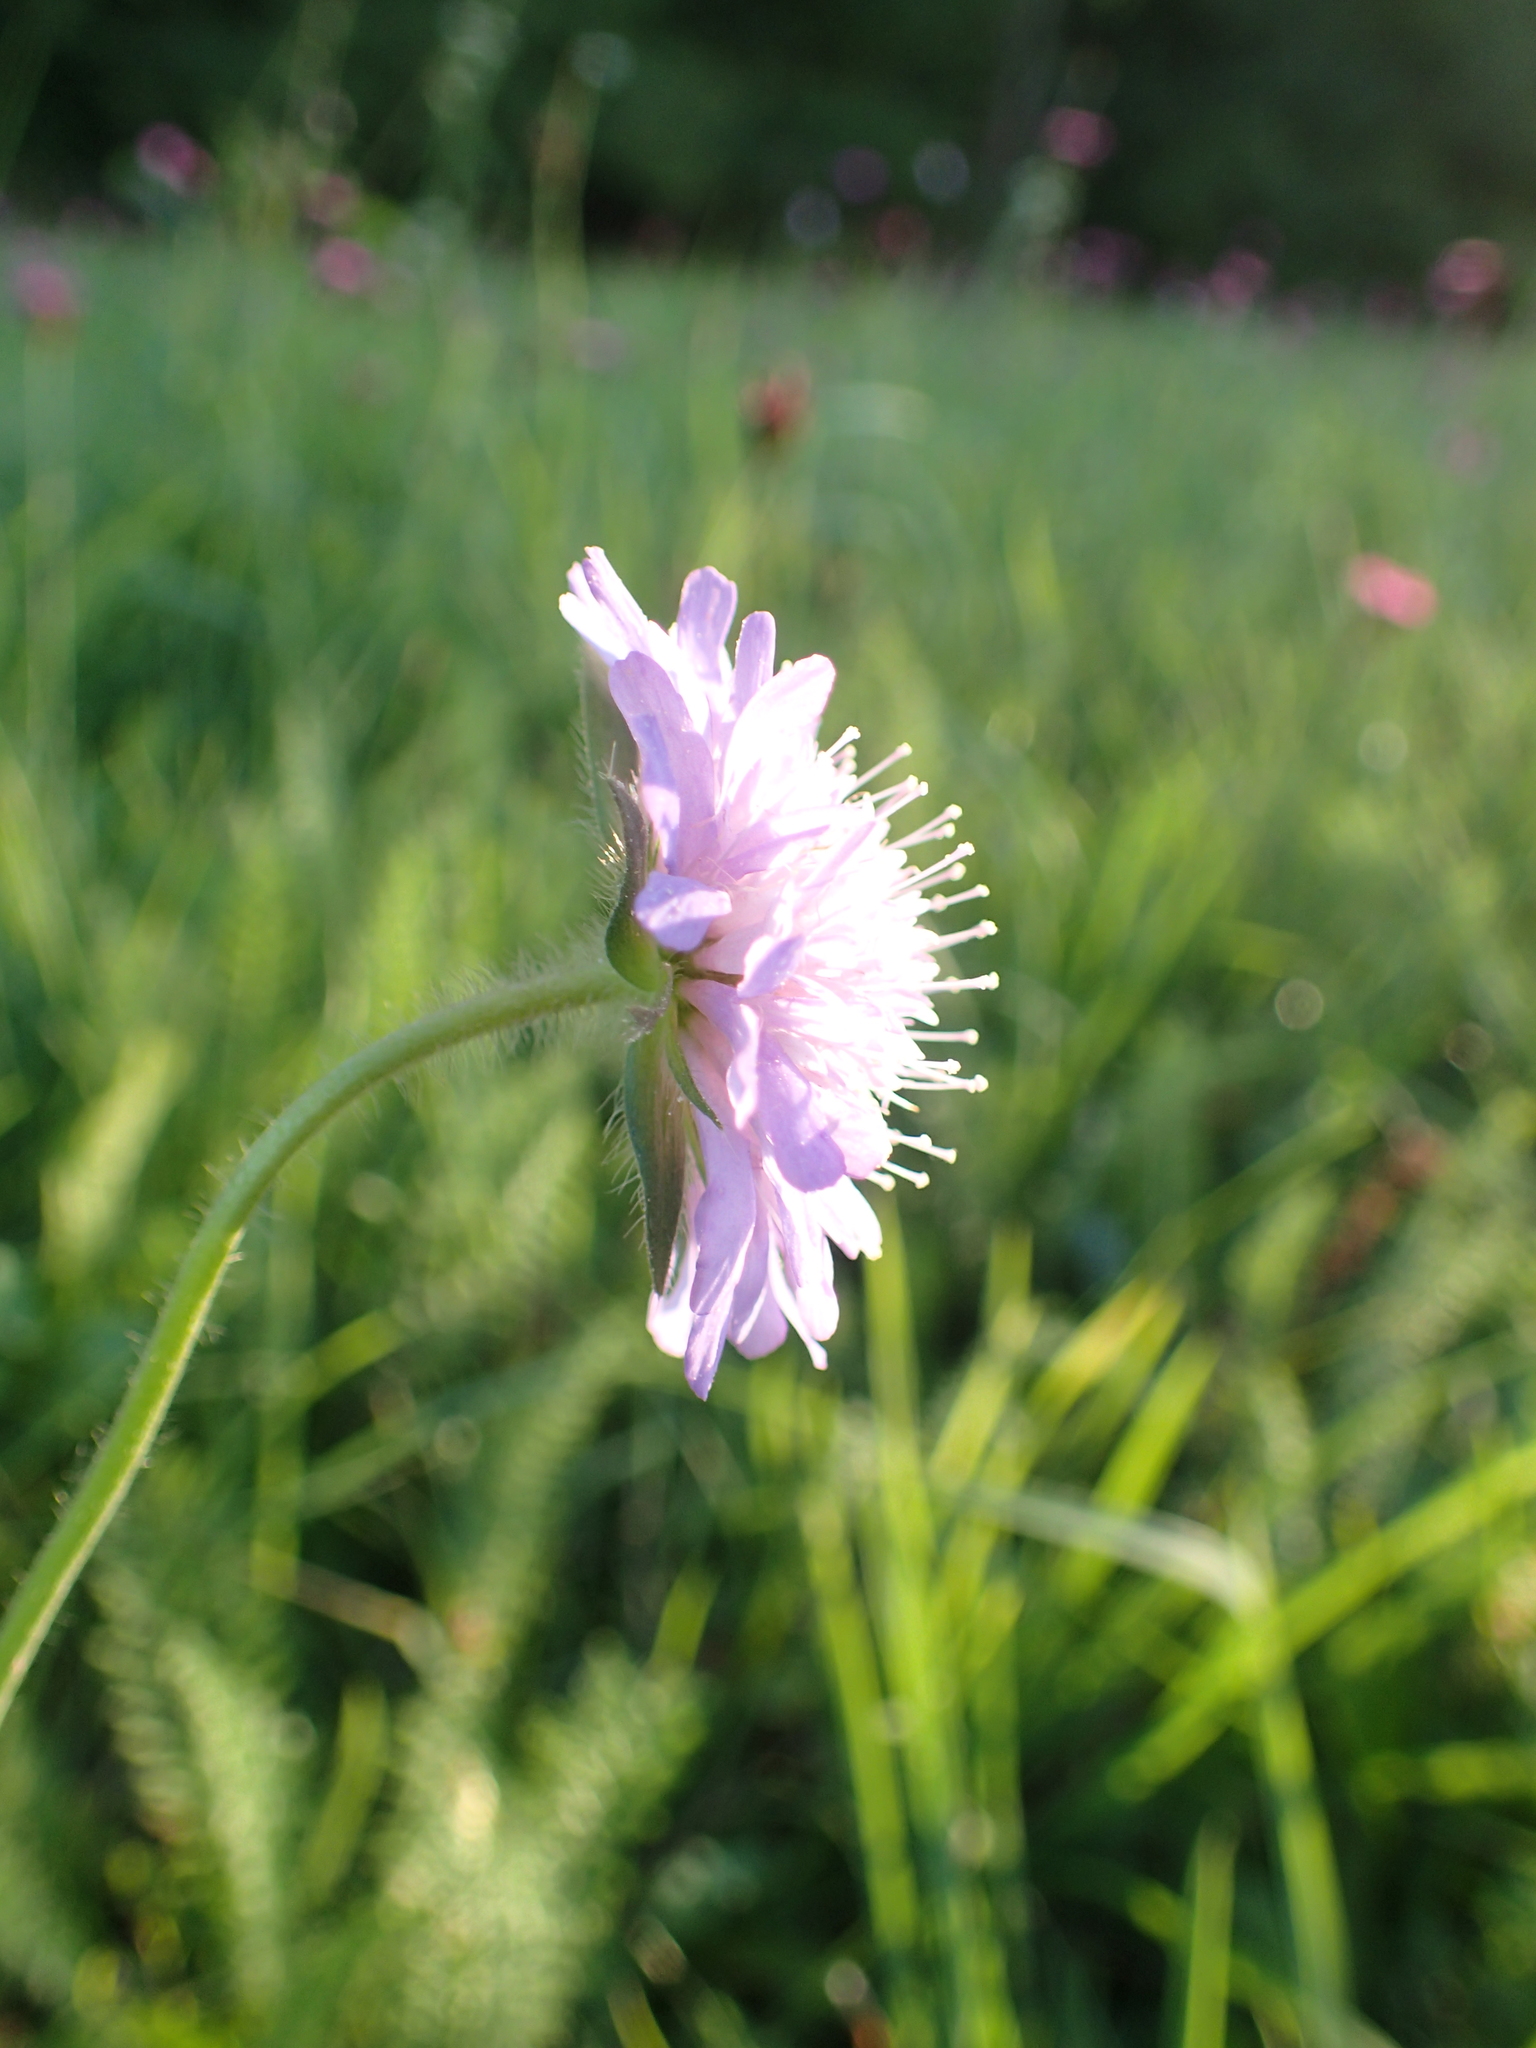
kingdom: Plantae
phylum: Tracheophyta
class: Magnoliopsida
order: Dipsacales
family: Caprifoliaceae
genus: Knautia
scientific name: Knautia
